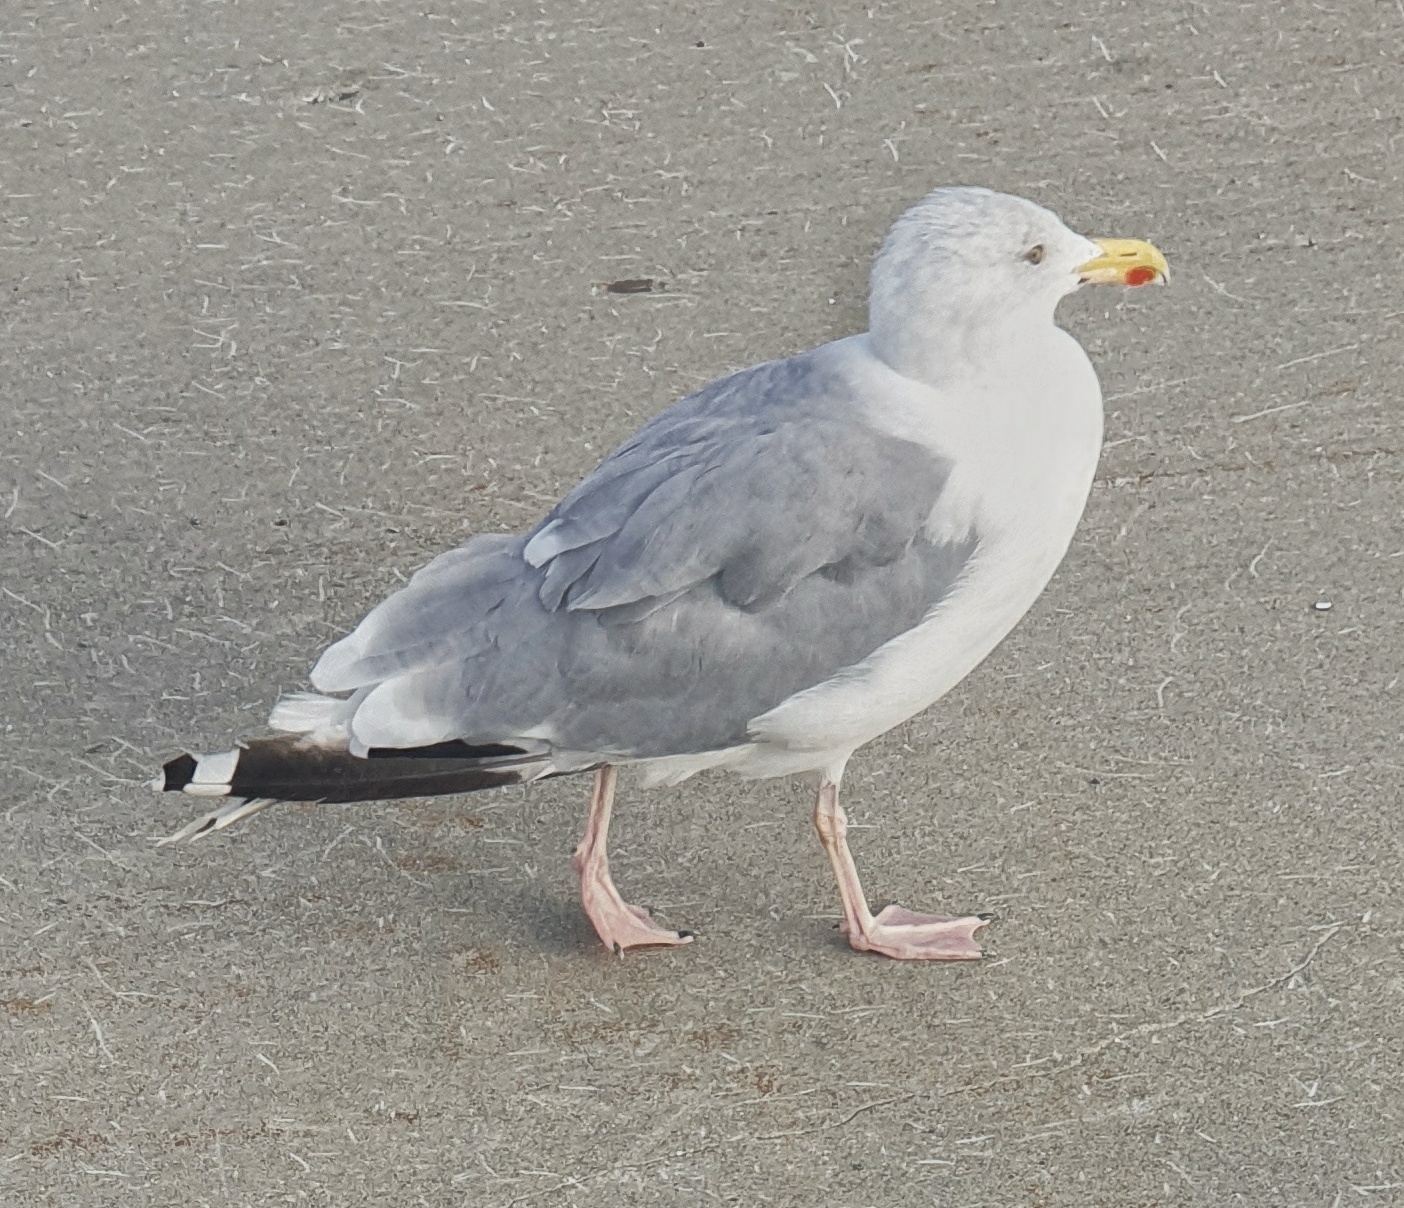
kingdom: Animalia
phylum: Chordata
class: Aves
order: Charadriiformes
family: Laridae
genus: Larus
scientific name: Larus argentatus
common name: Herring gull
